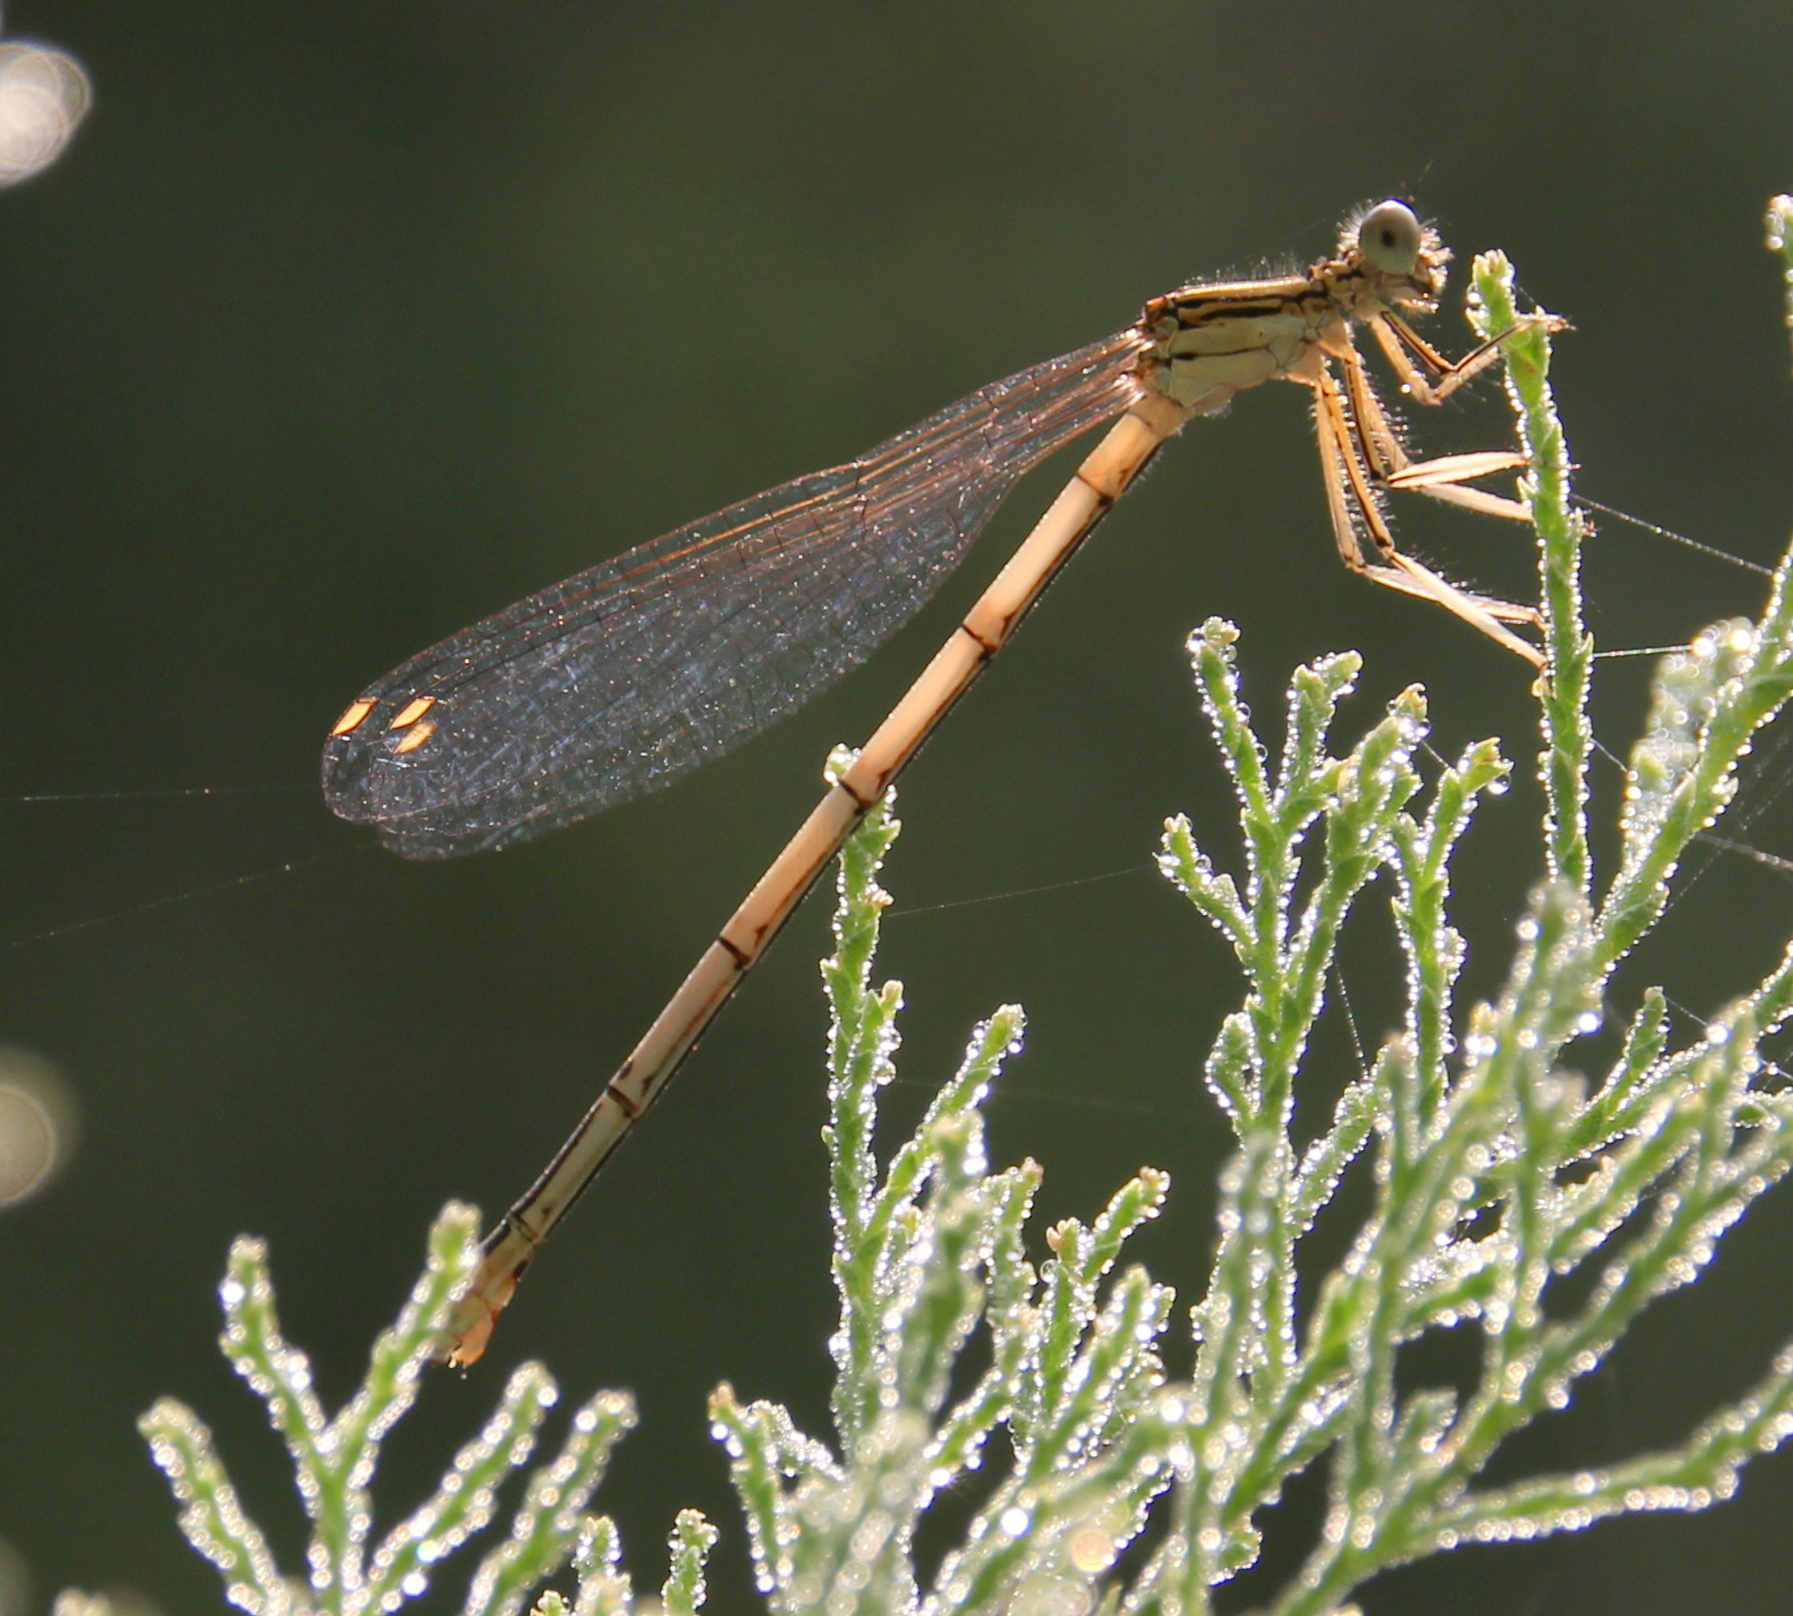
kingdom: Animalia
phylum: Arthropoda
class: Insecta
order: Odonata
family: Platycnemididae
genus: Platycnemis
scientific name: Platycnemis pennipes
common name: White-legged damselfly
